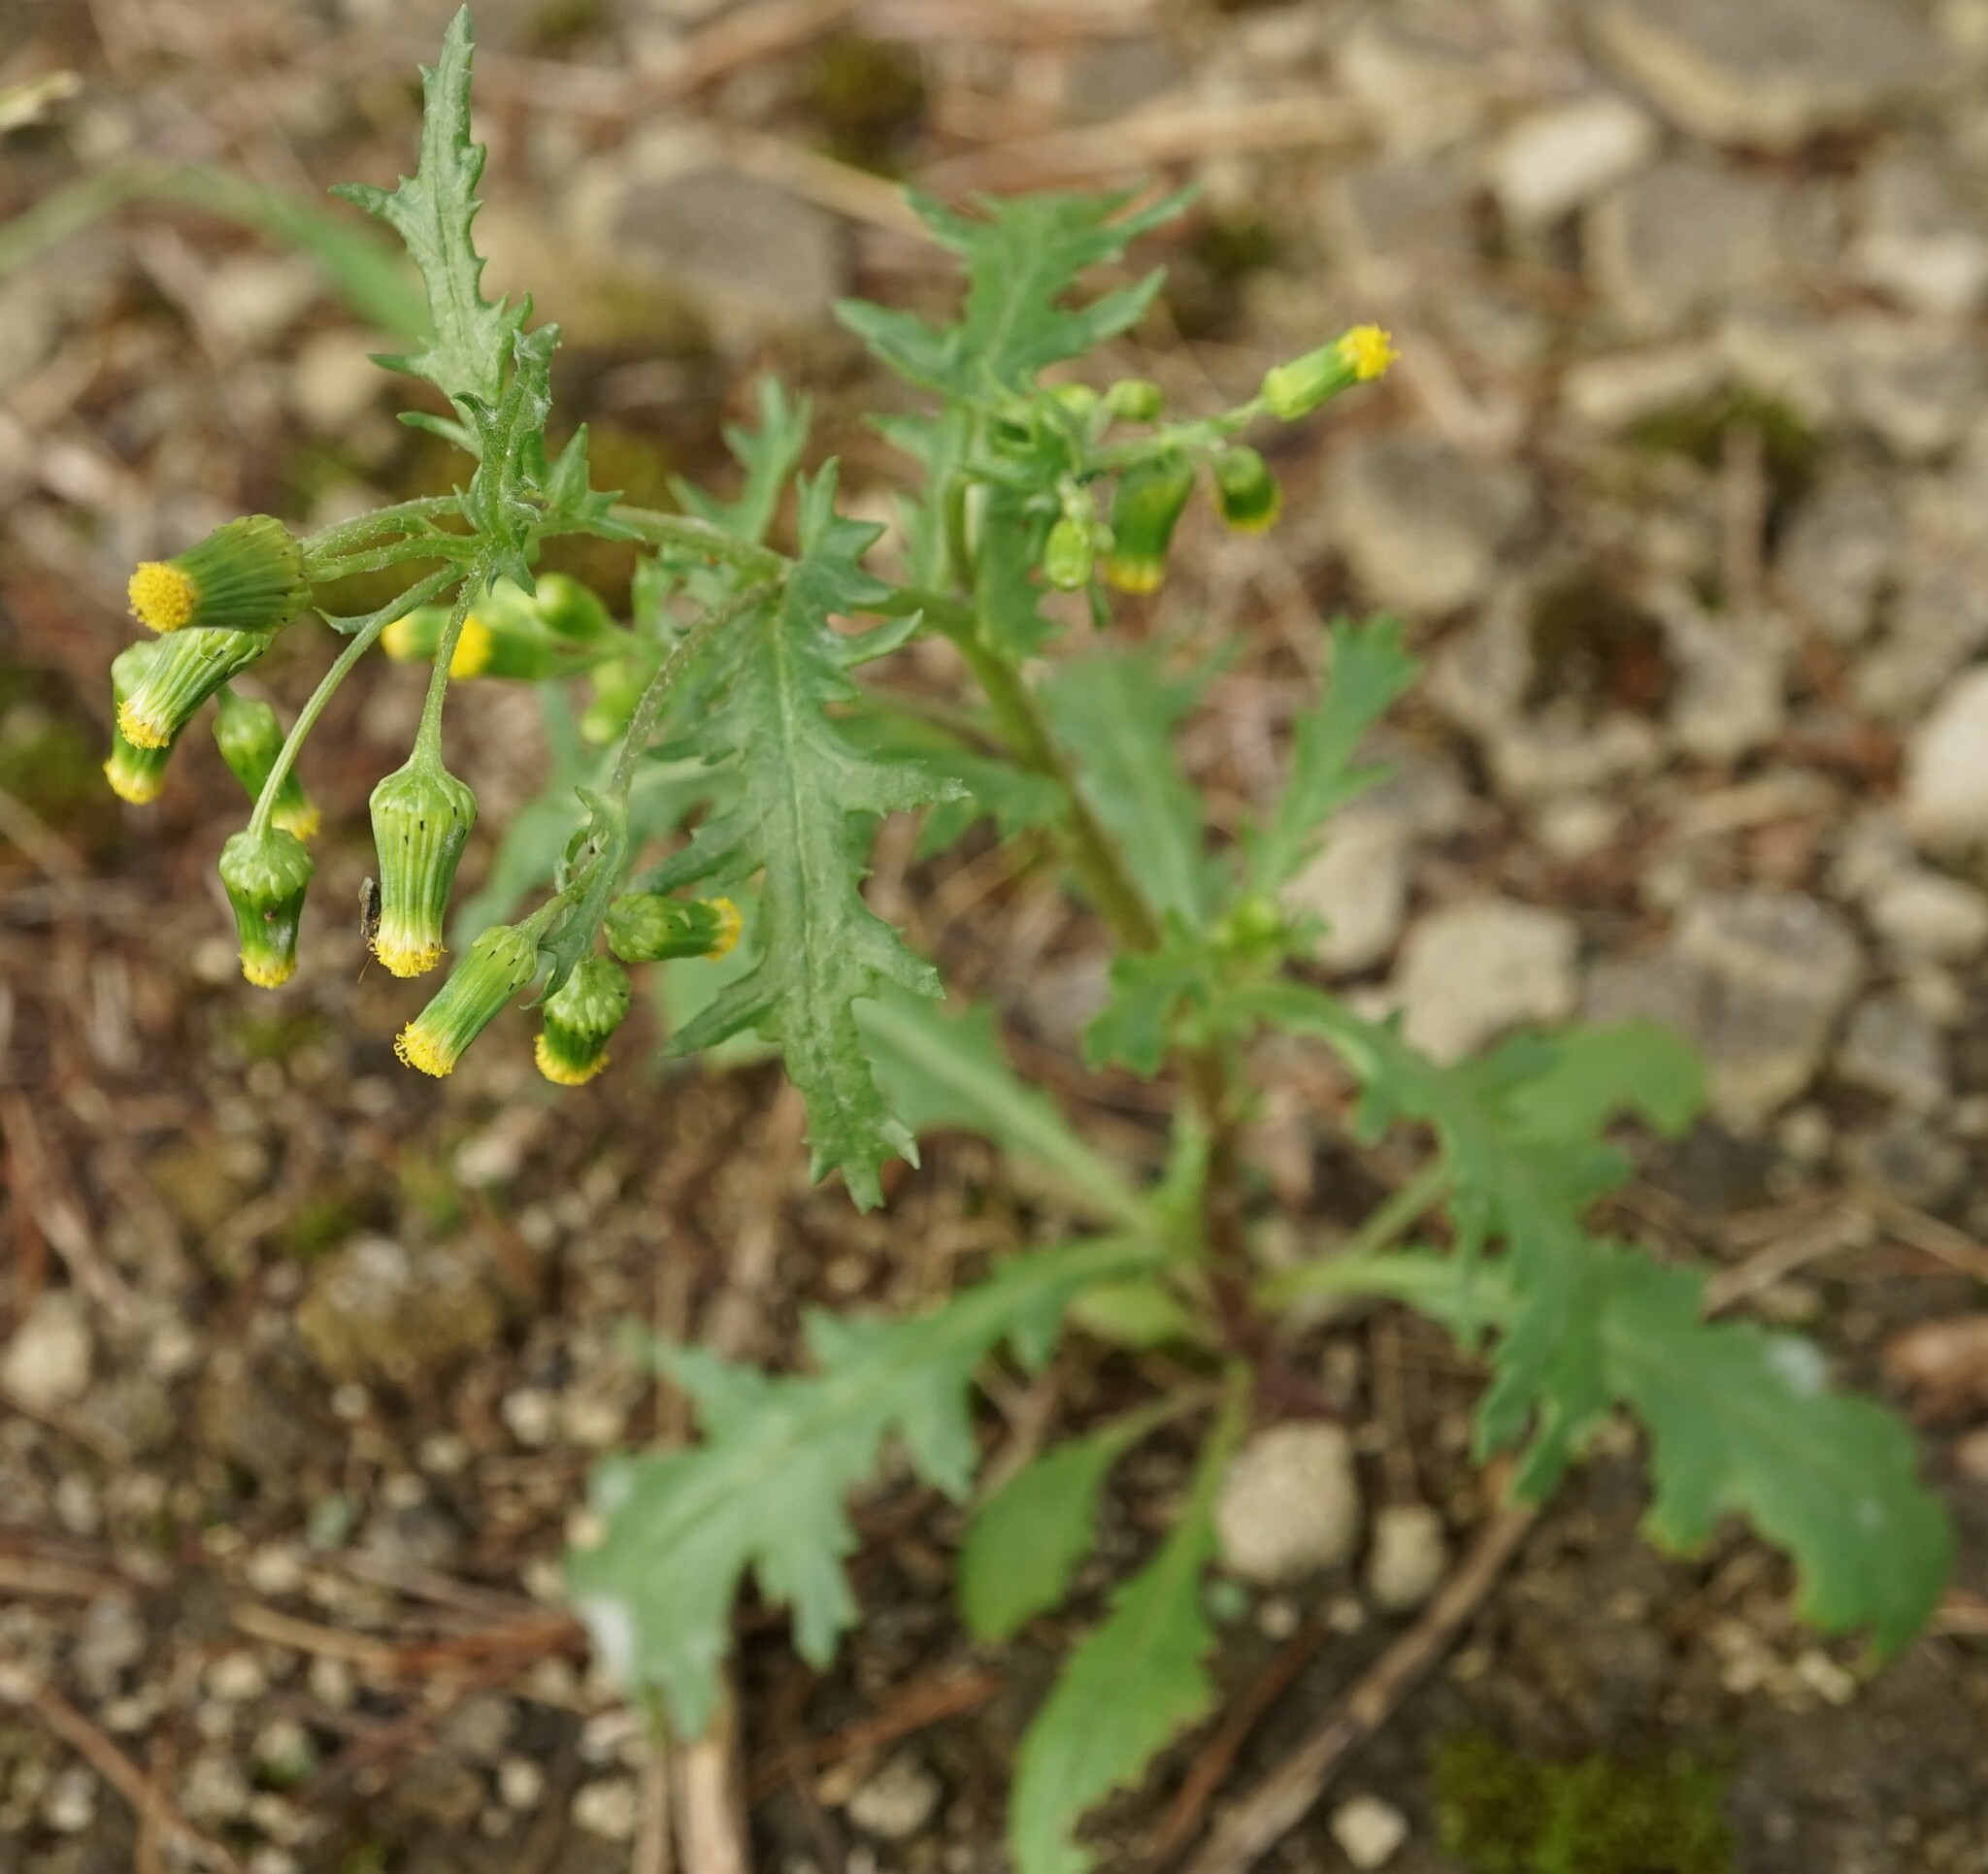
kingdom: Plantae
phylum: Tracheophyta
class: Magnoliopsida
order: Asterales
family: Asteraceae
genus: Senecio
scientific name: Senecio vulgaris
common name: Old-man-in-the-spring
